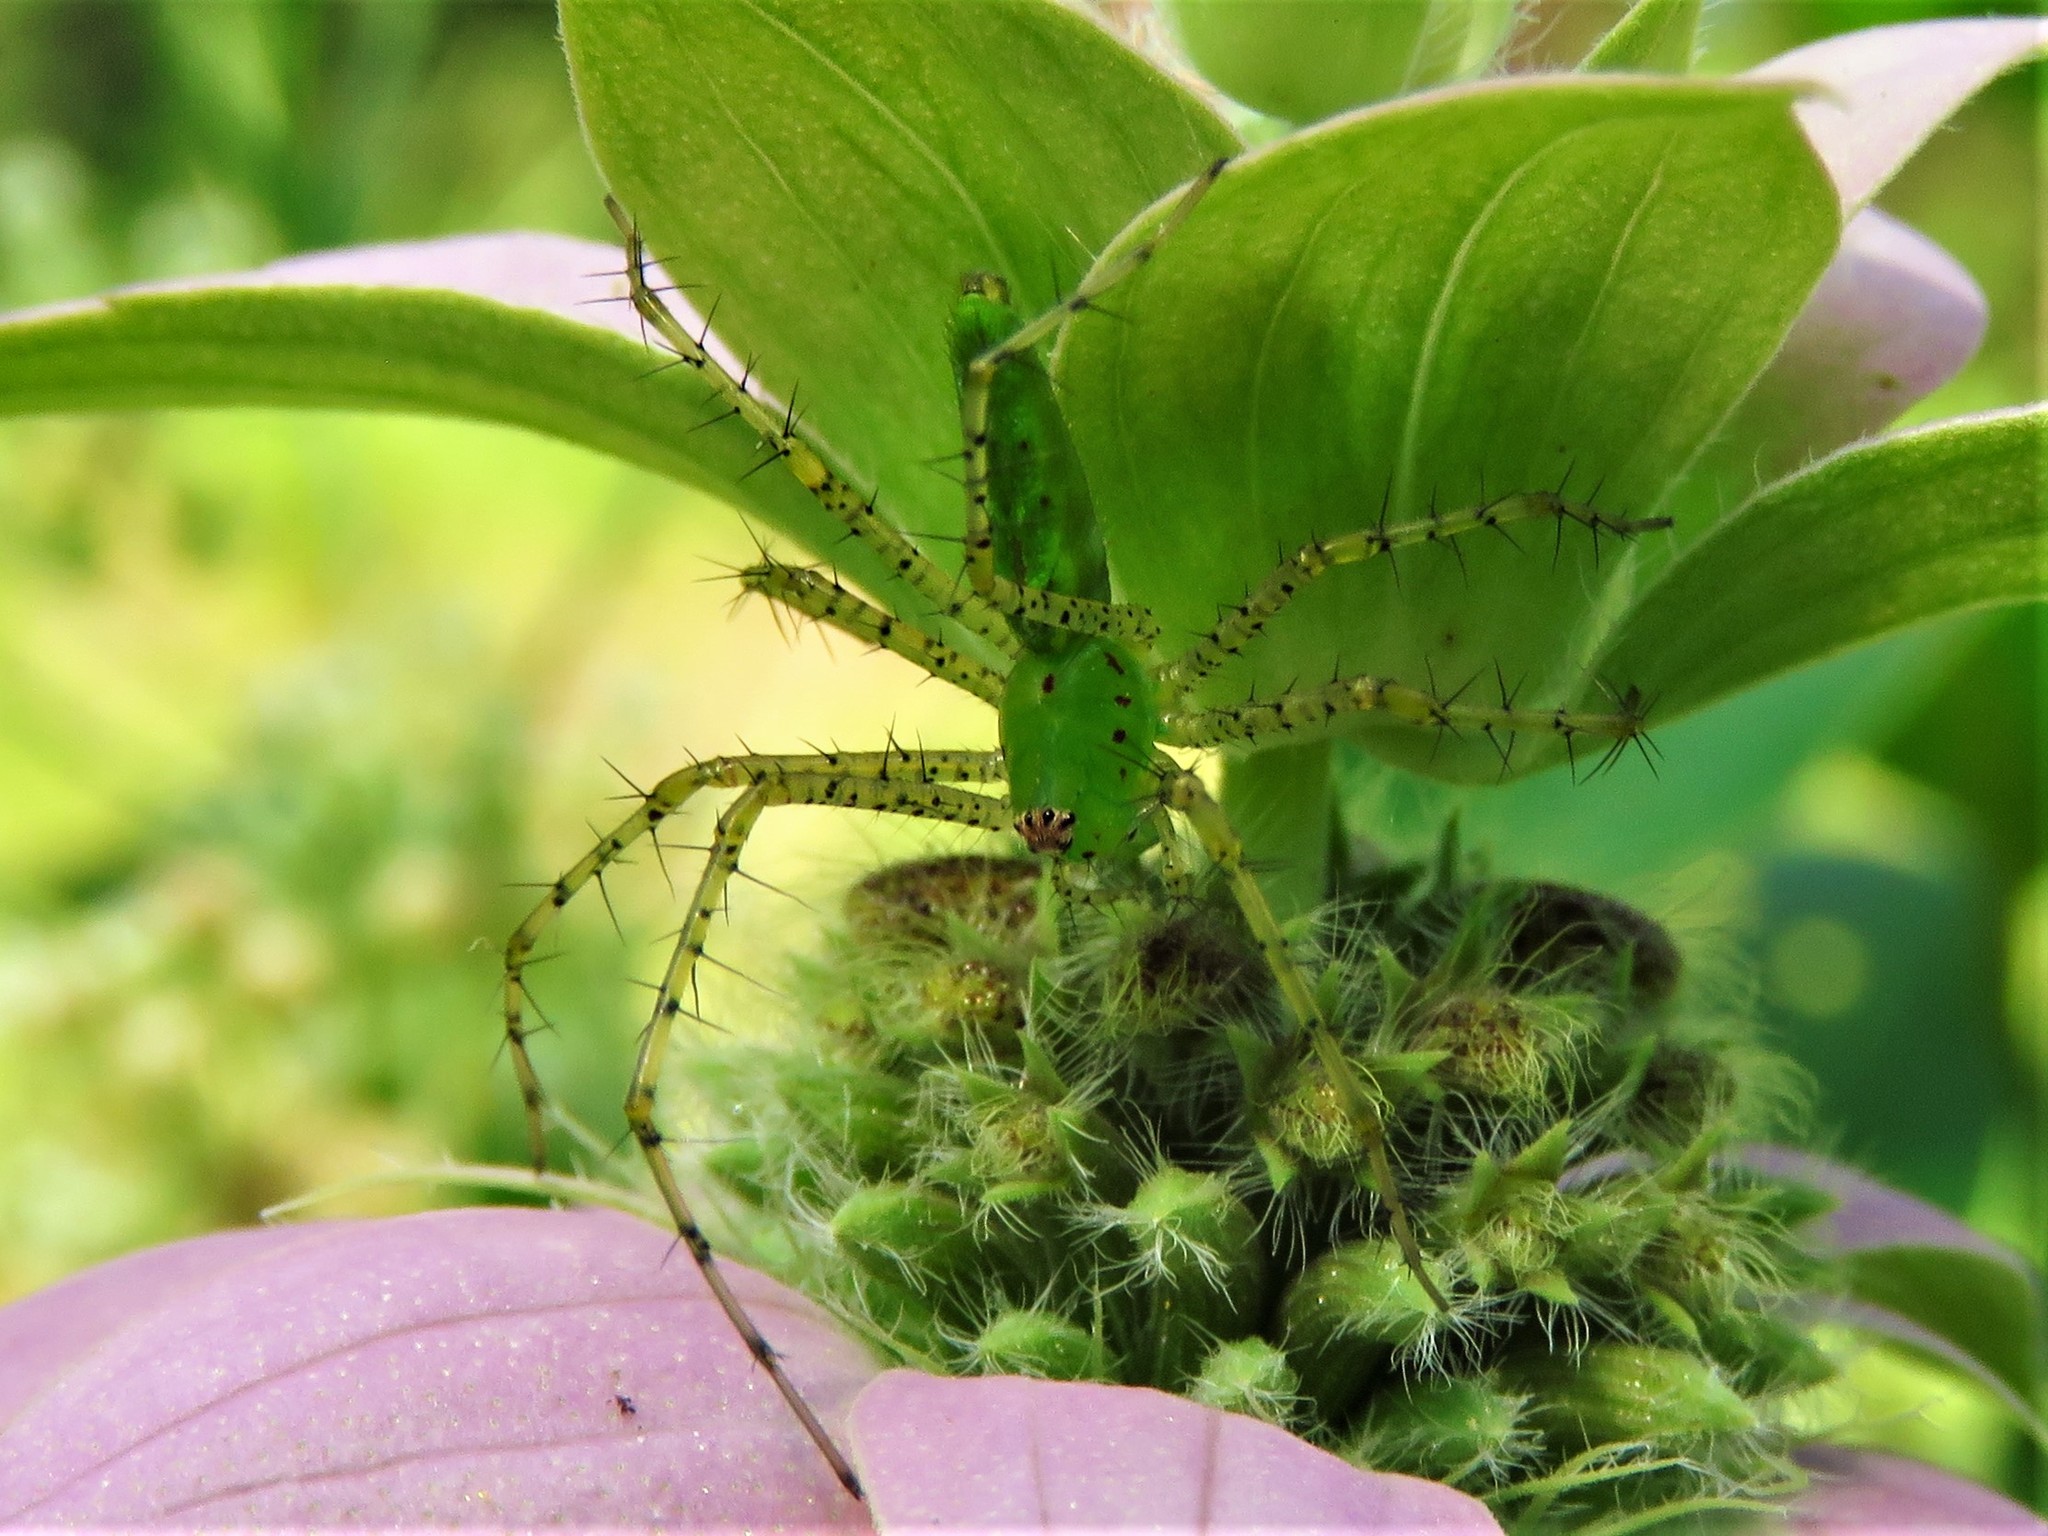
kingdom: Animalia
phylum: Arthropoda
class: Arachnida
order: Araneae
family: Oxyopidae
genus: Peucetia
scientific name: Peucetia viridans
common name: Lynx spiders
